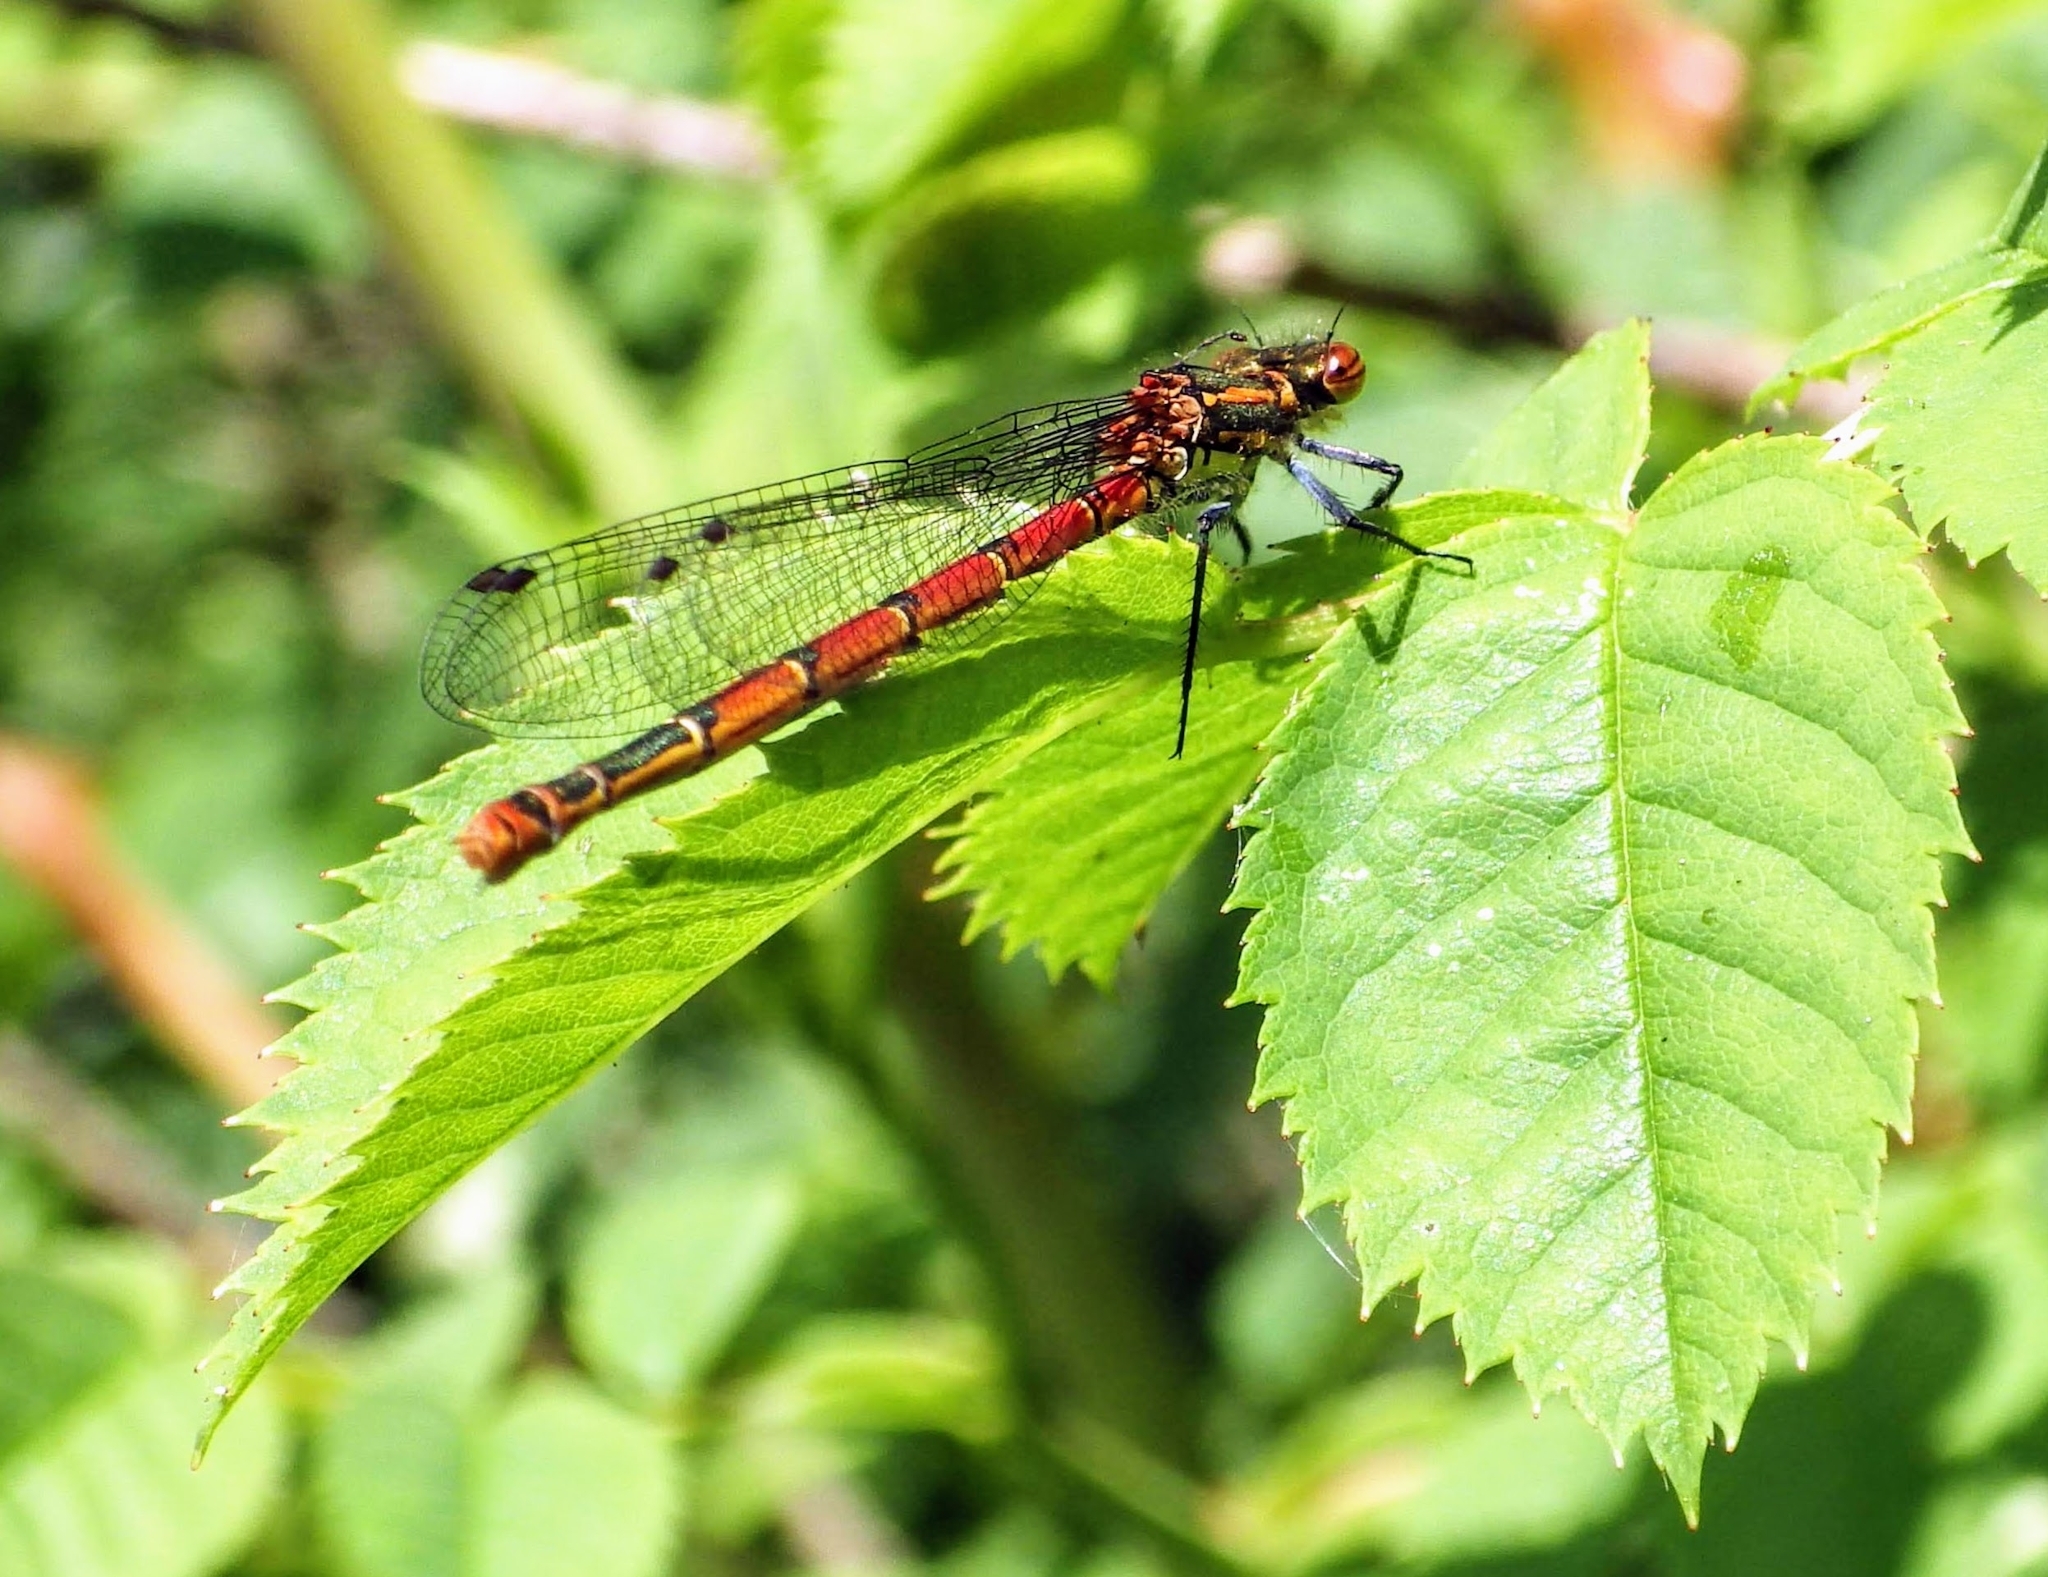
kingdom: Animalia
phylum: Arthropoda
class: Insecta
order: Odonata
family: Coenagrionidae
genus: Pyrrhosoma
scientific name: Pyrrhosoma nymphula
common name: Large red damsel
